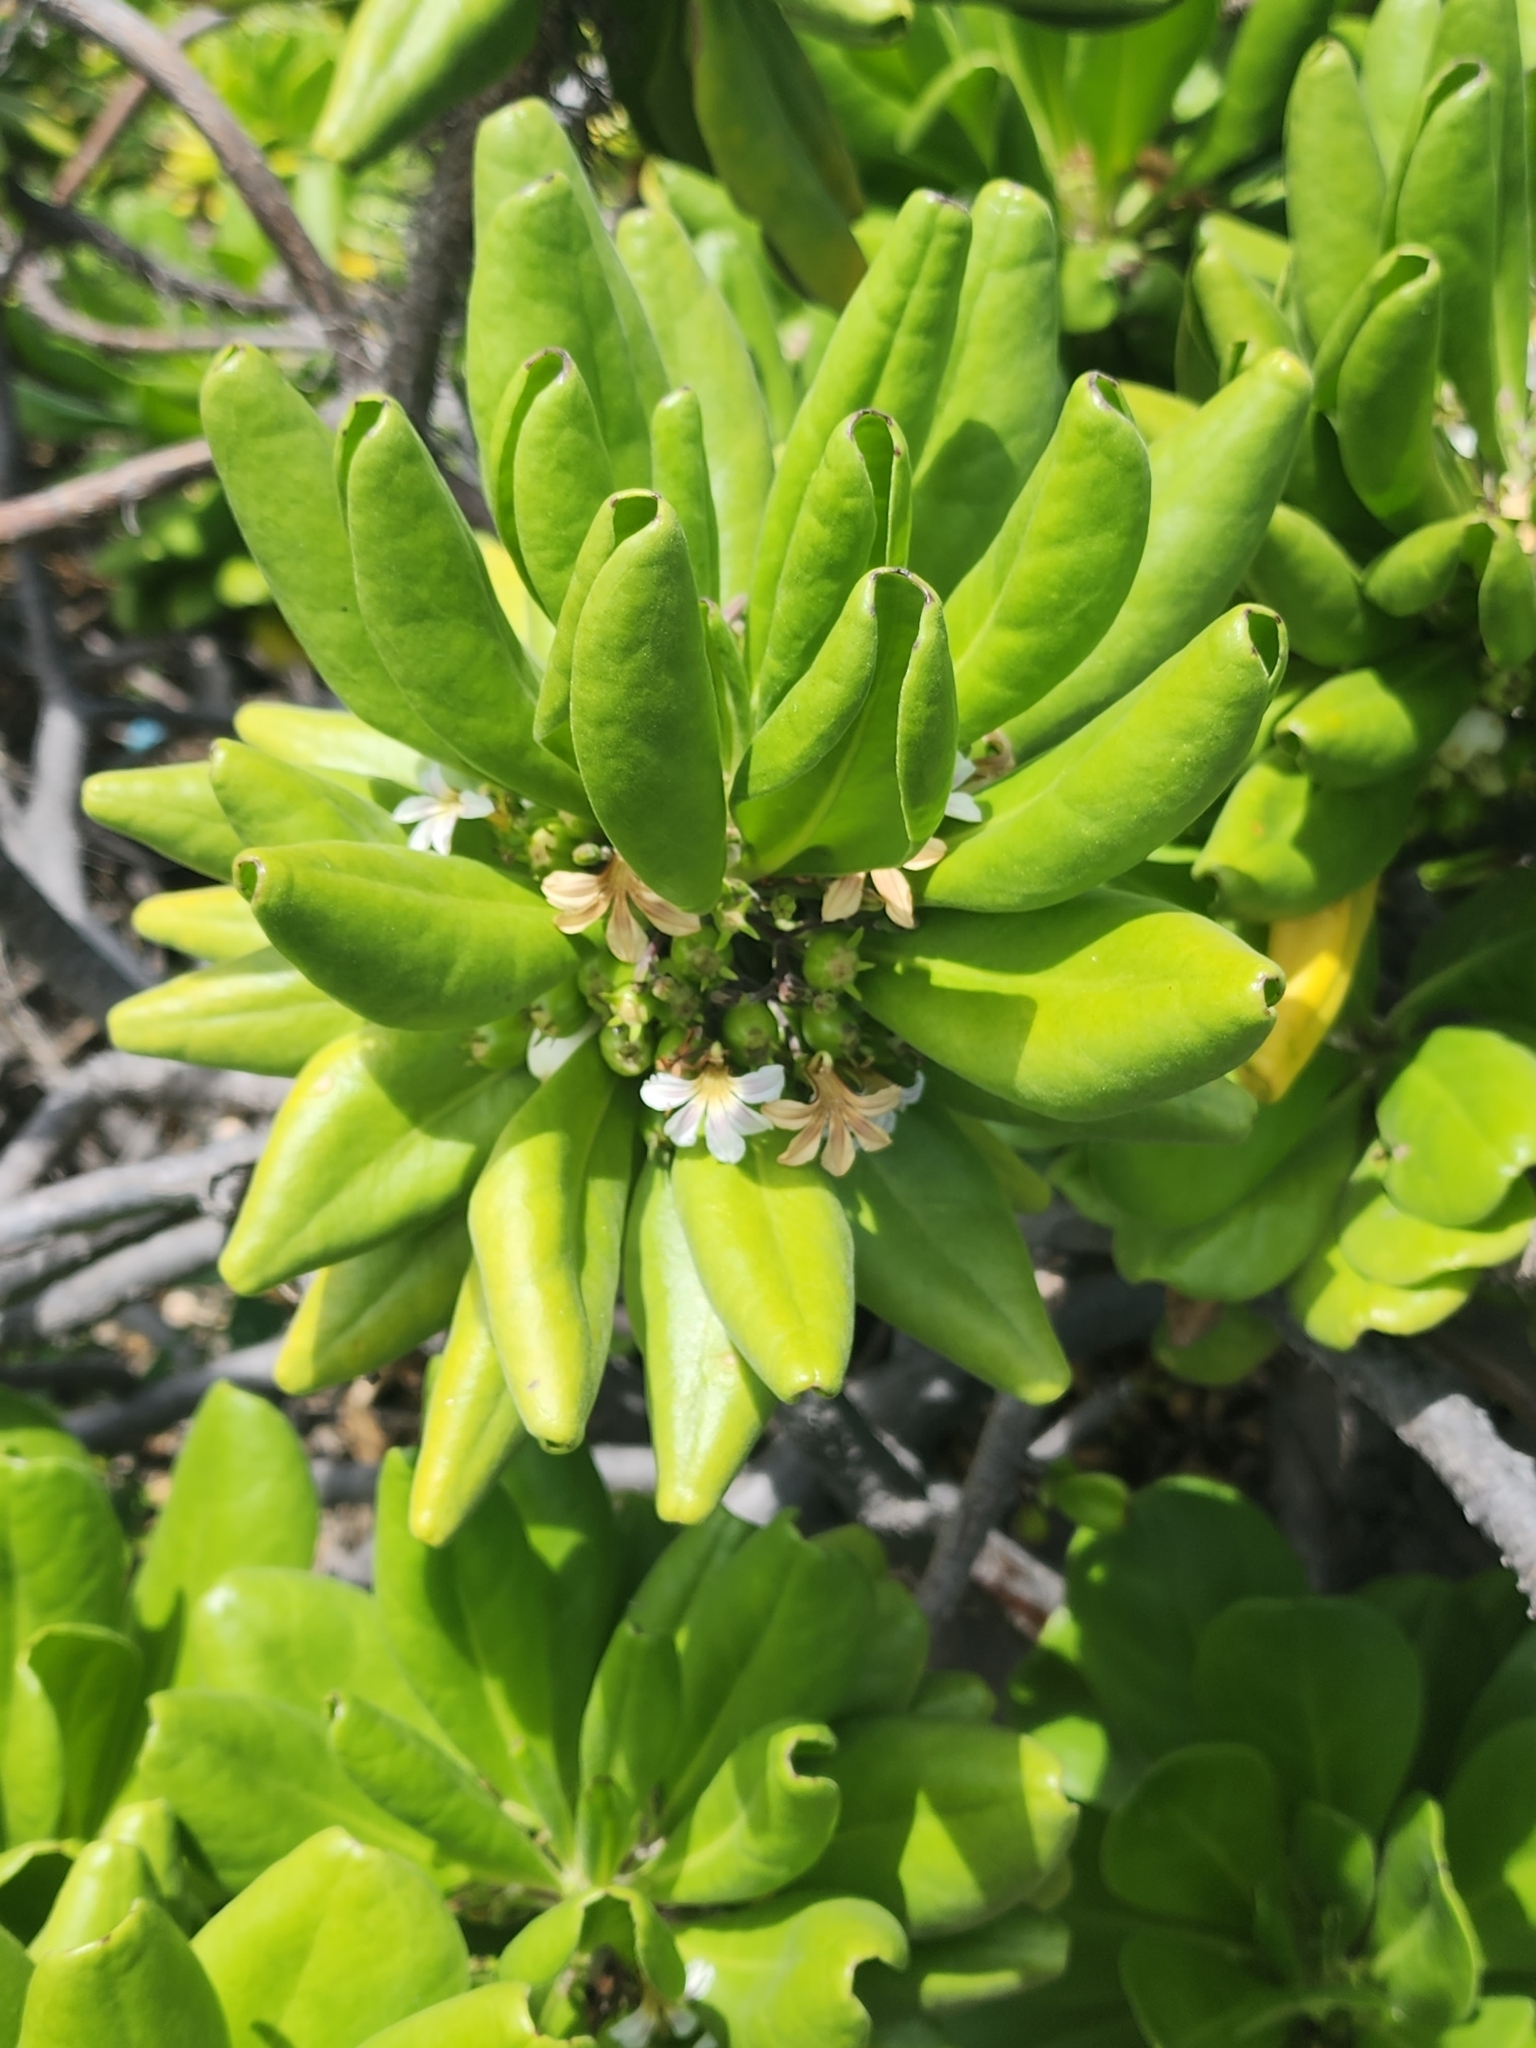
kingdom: Plantae
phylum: Tracheophyta
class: Magnoliopsida
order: Asterales
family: Goodeniaceae
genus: Scaevola
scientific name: Scaevola taccada
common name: Sea lettucetree
